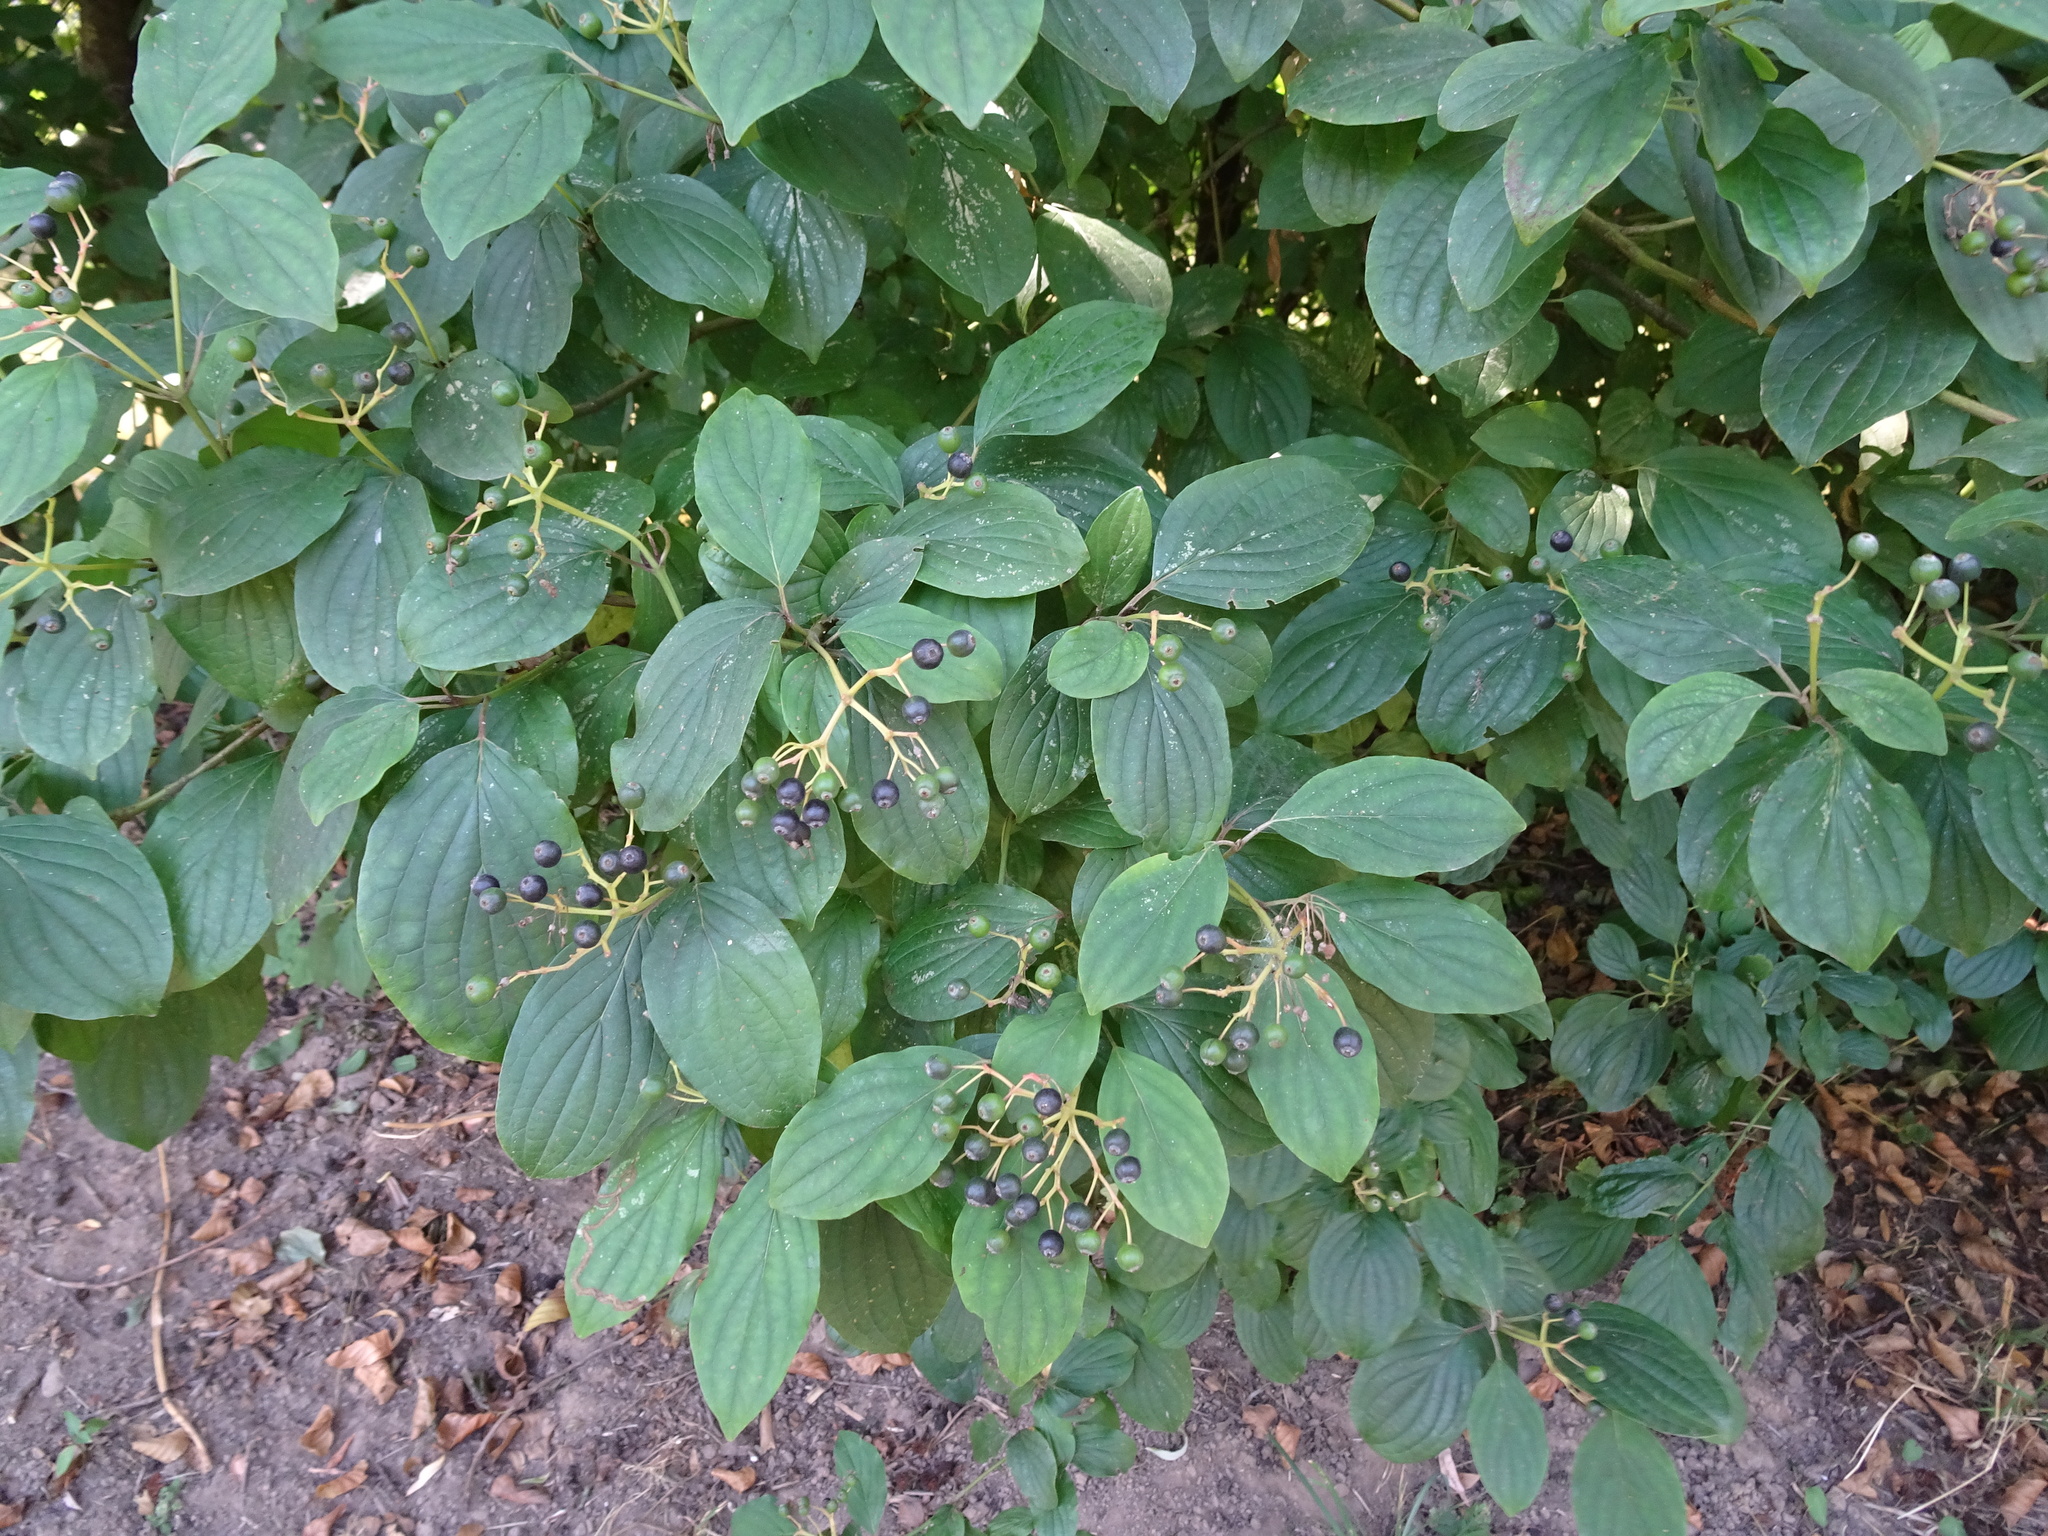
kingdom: Plantae
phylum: Tracheophyta
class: Magnoliopsida
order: Cornales
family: Cornaceae
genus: Cornus
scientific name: Cornus sanguinea
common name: Dogwood
